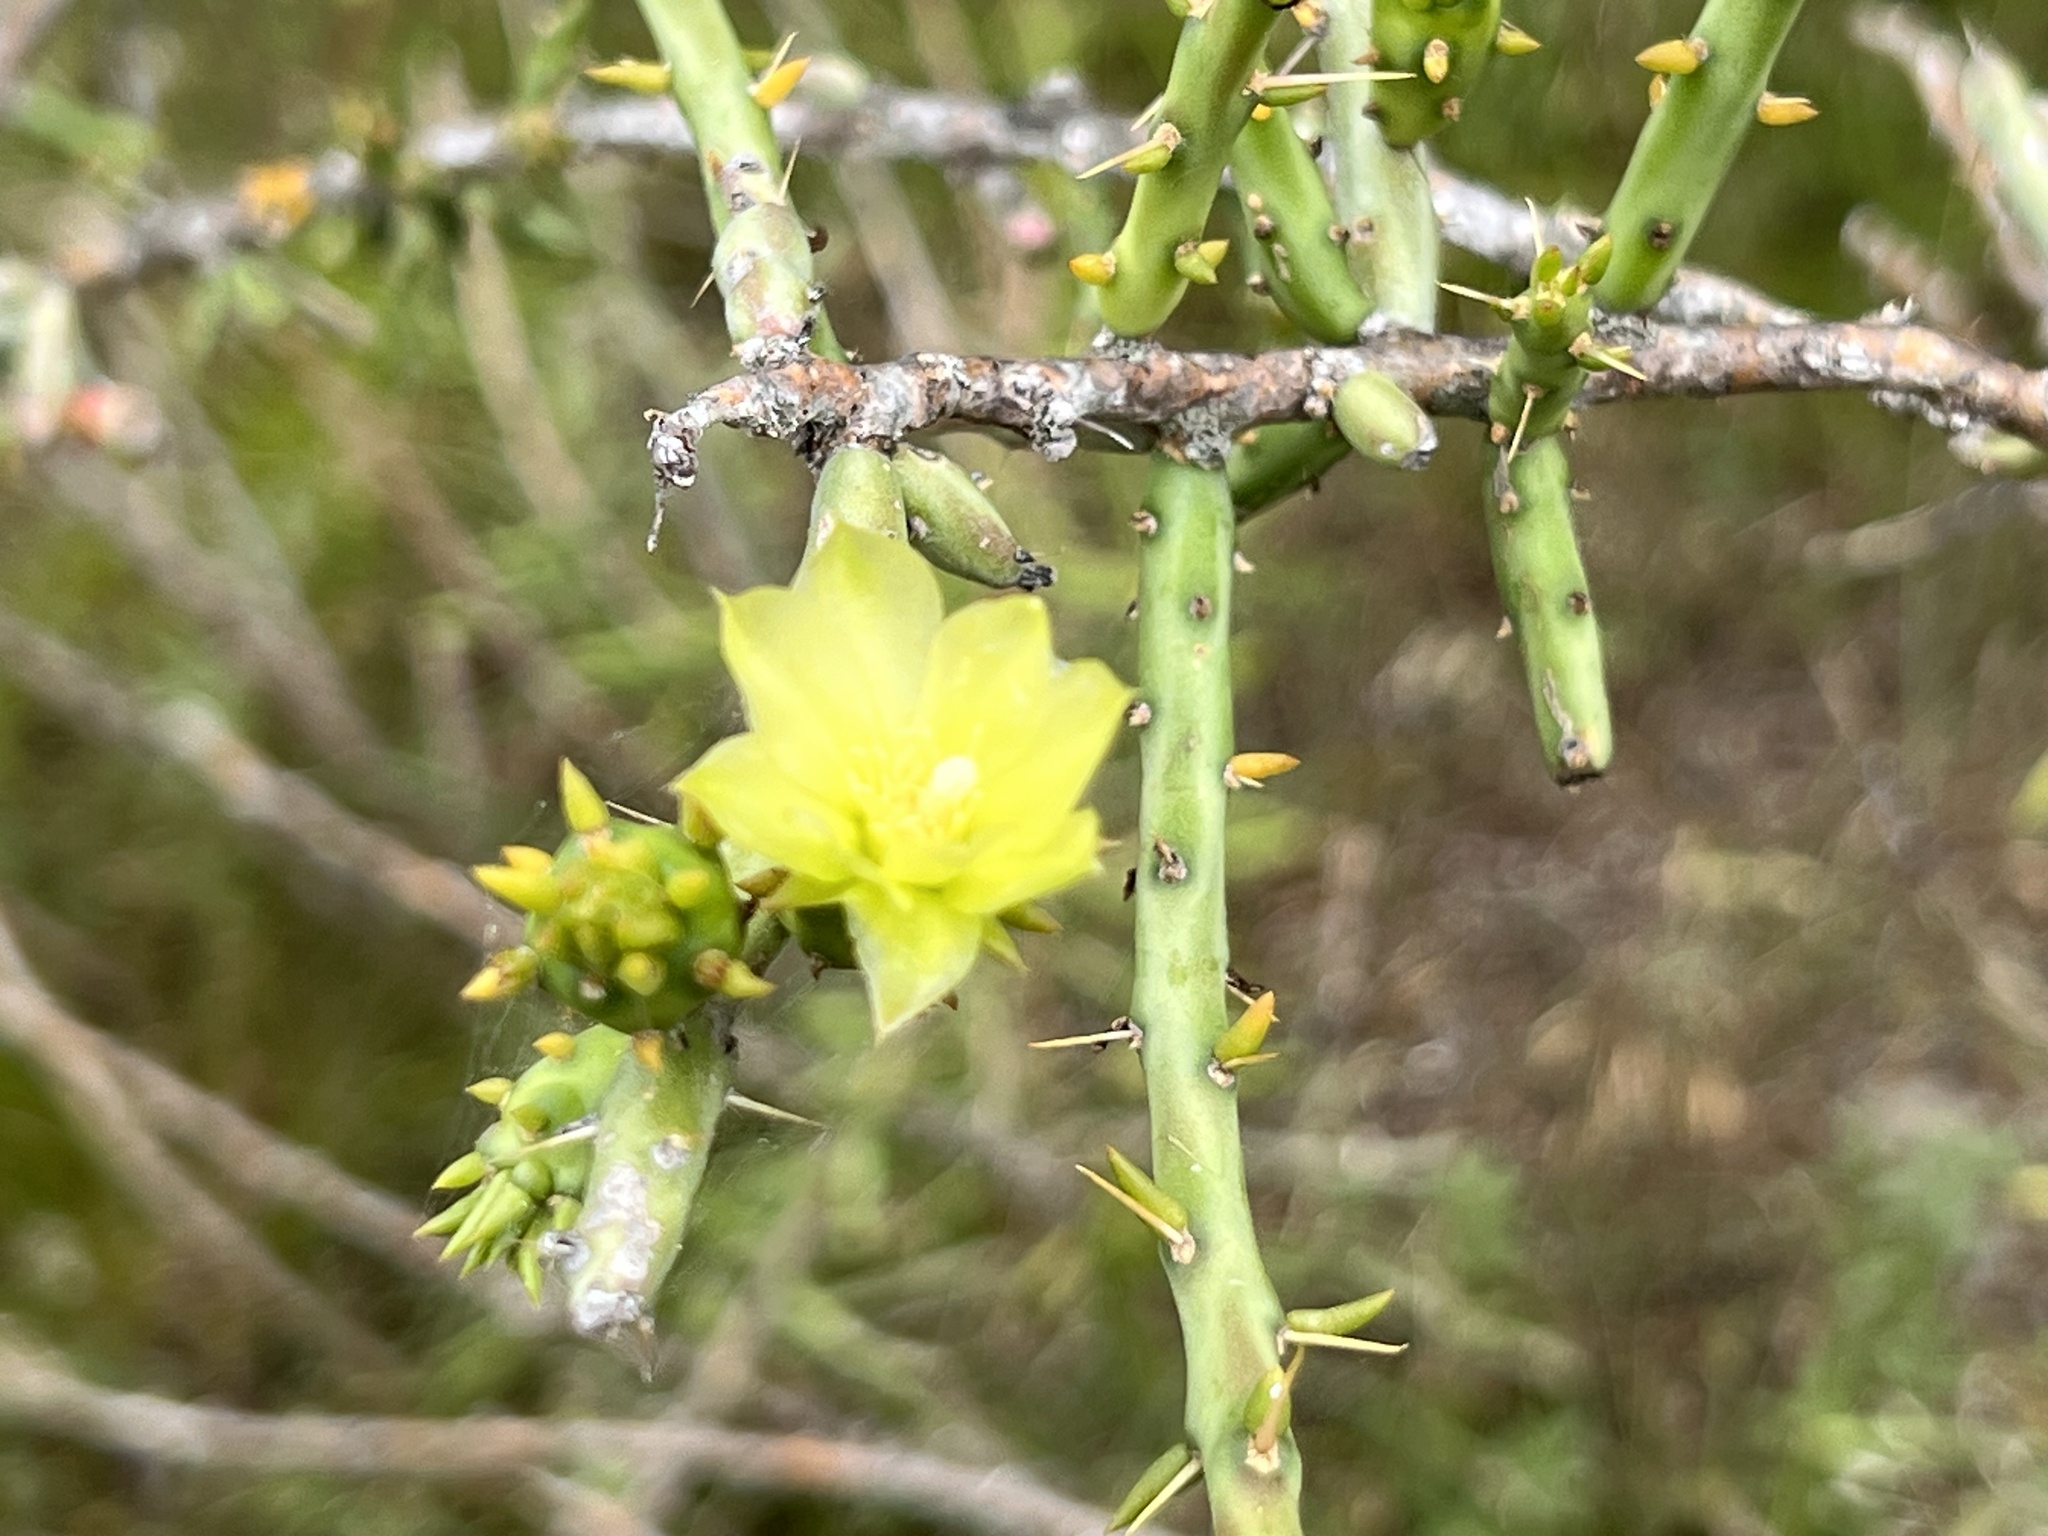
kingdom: Plantae
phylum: Tracheophyta
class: Magnoliopsida
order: Caryophyllales
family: Cactaceae
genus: Cylindropuntia
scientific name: Cylindropuntia leptocaulis
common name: Christmas cactus
